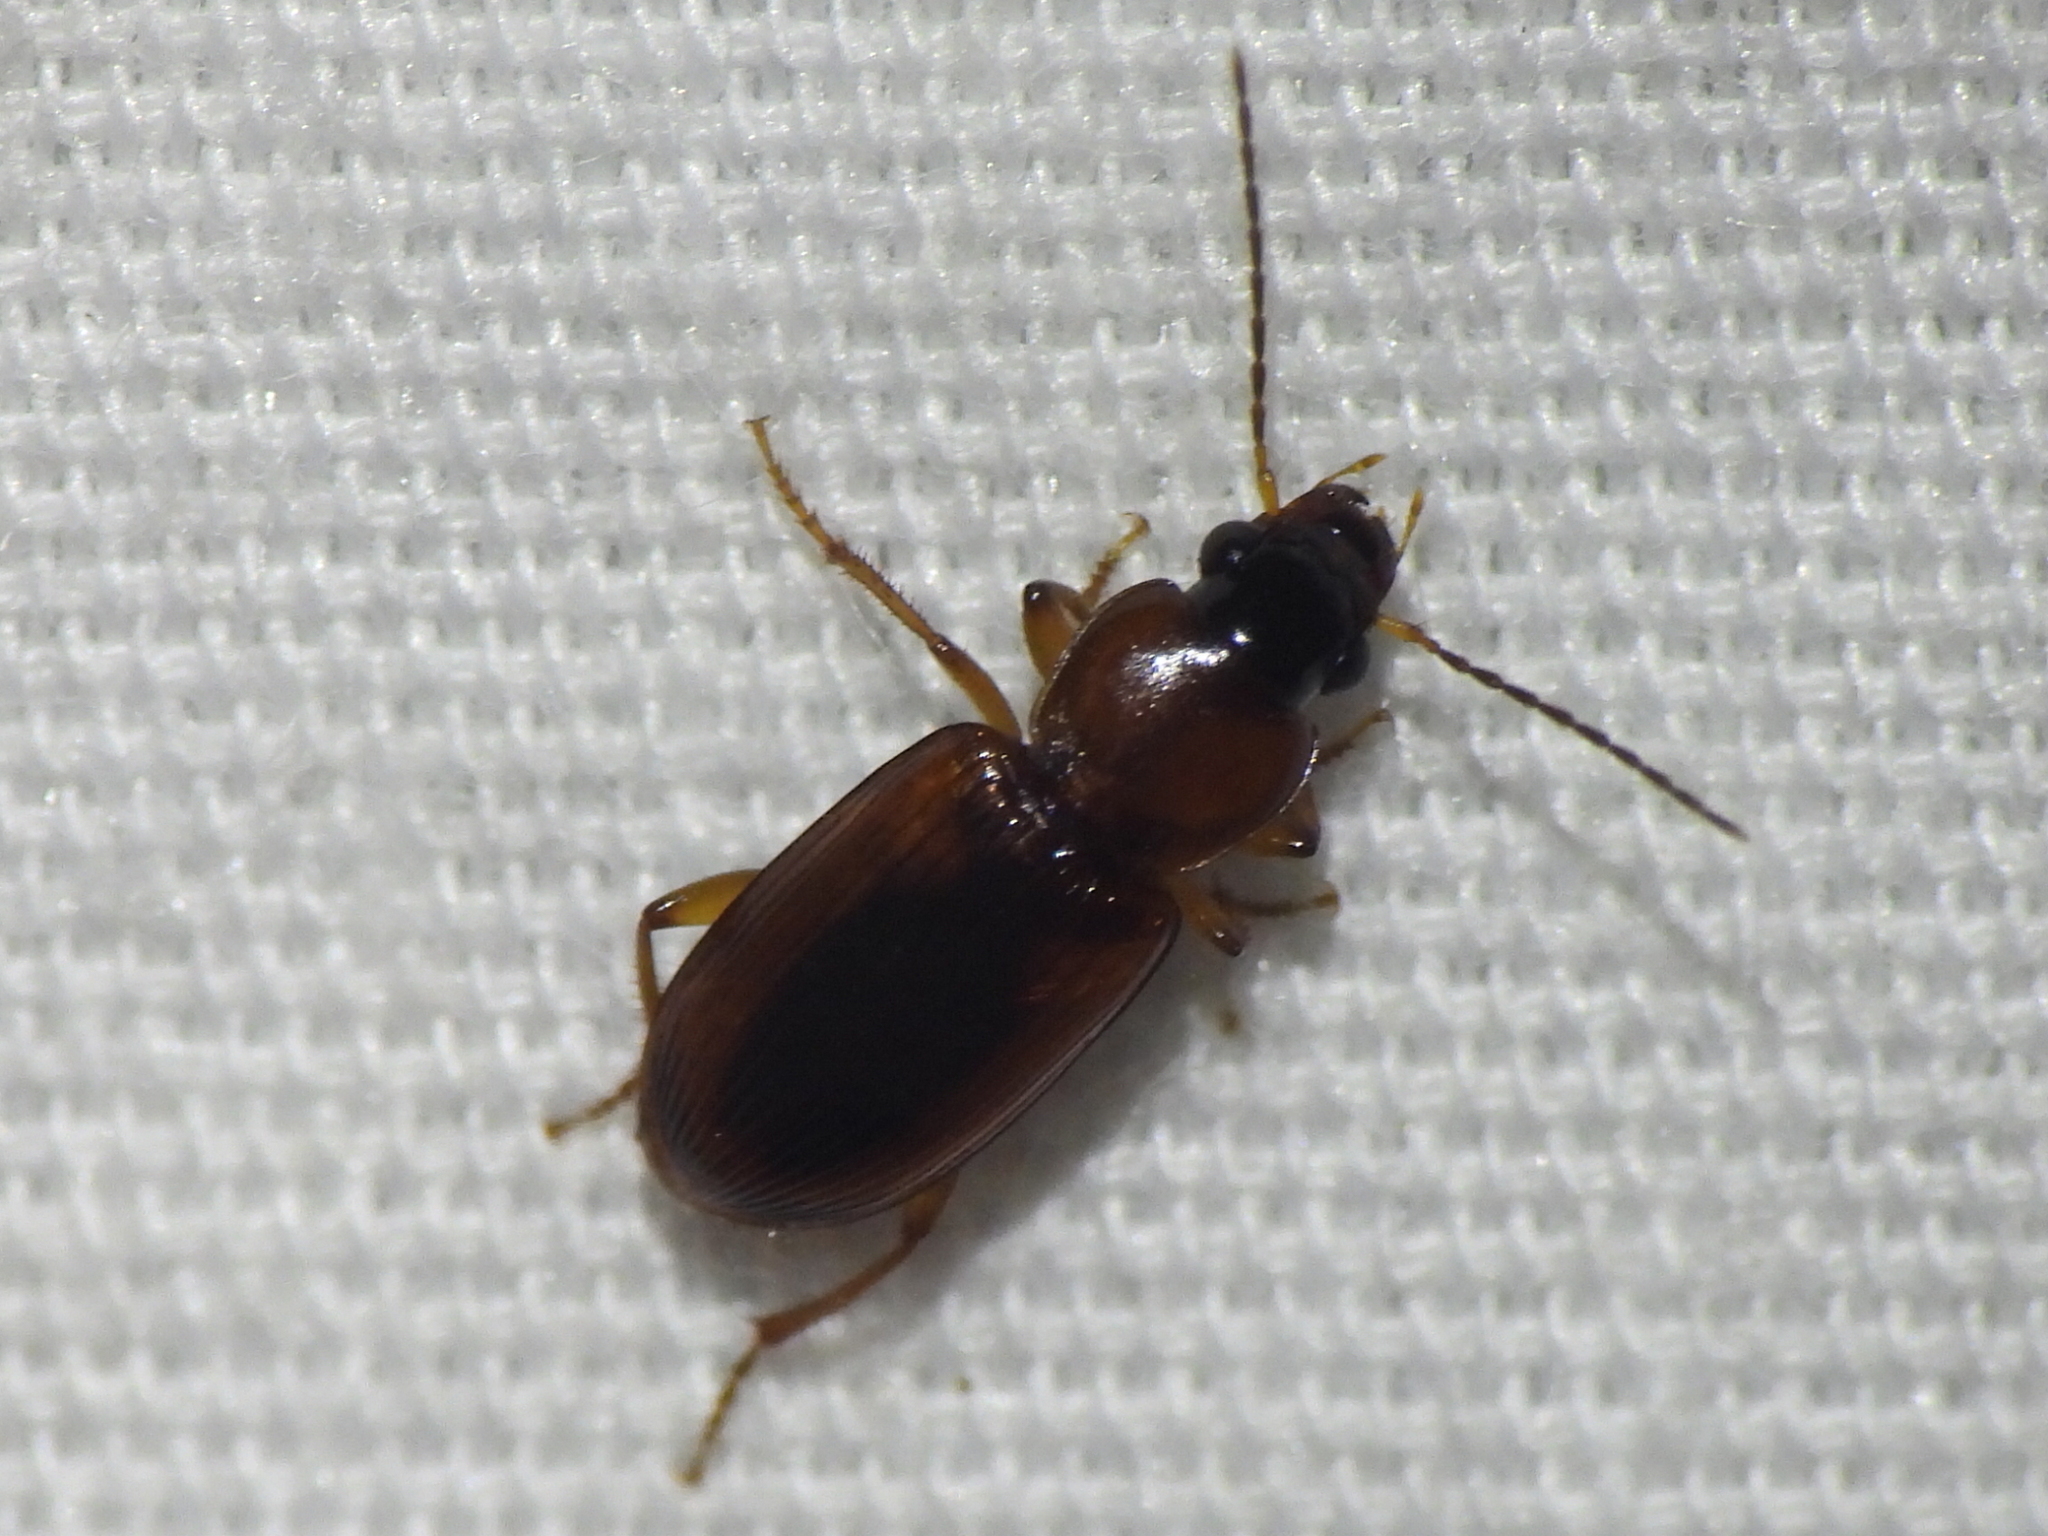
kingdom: Animalia
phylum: Arthropoda
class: Insecta
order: Coleoptera
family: Carabidae
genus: Stenolophus
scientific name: Stenolophus dissimilis
